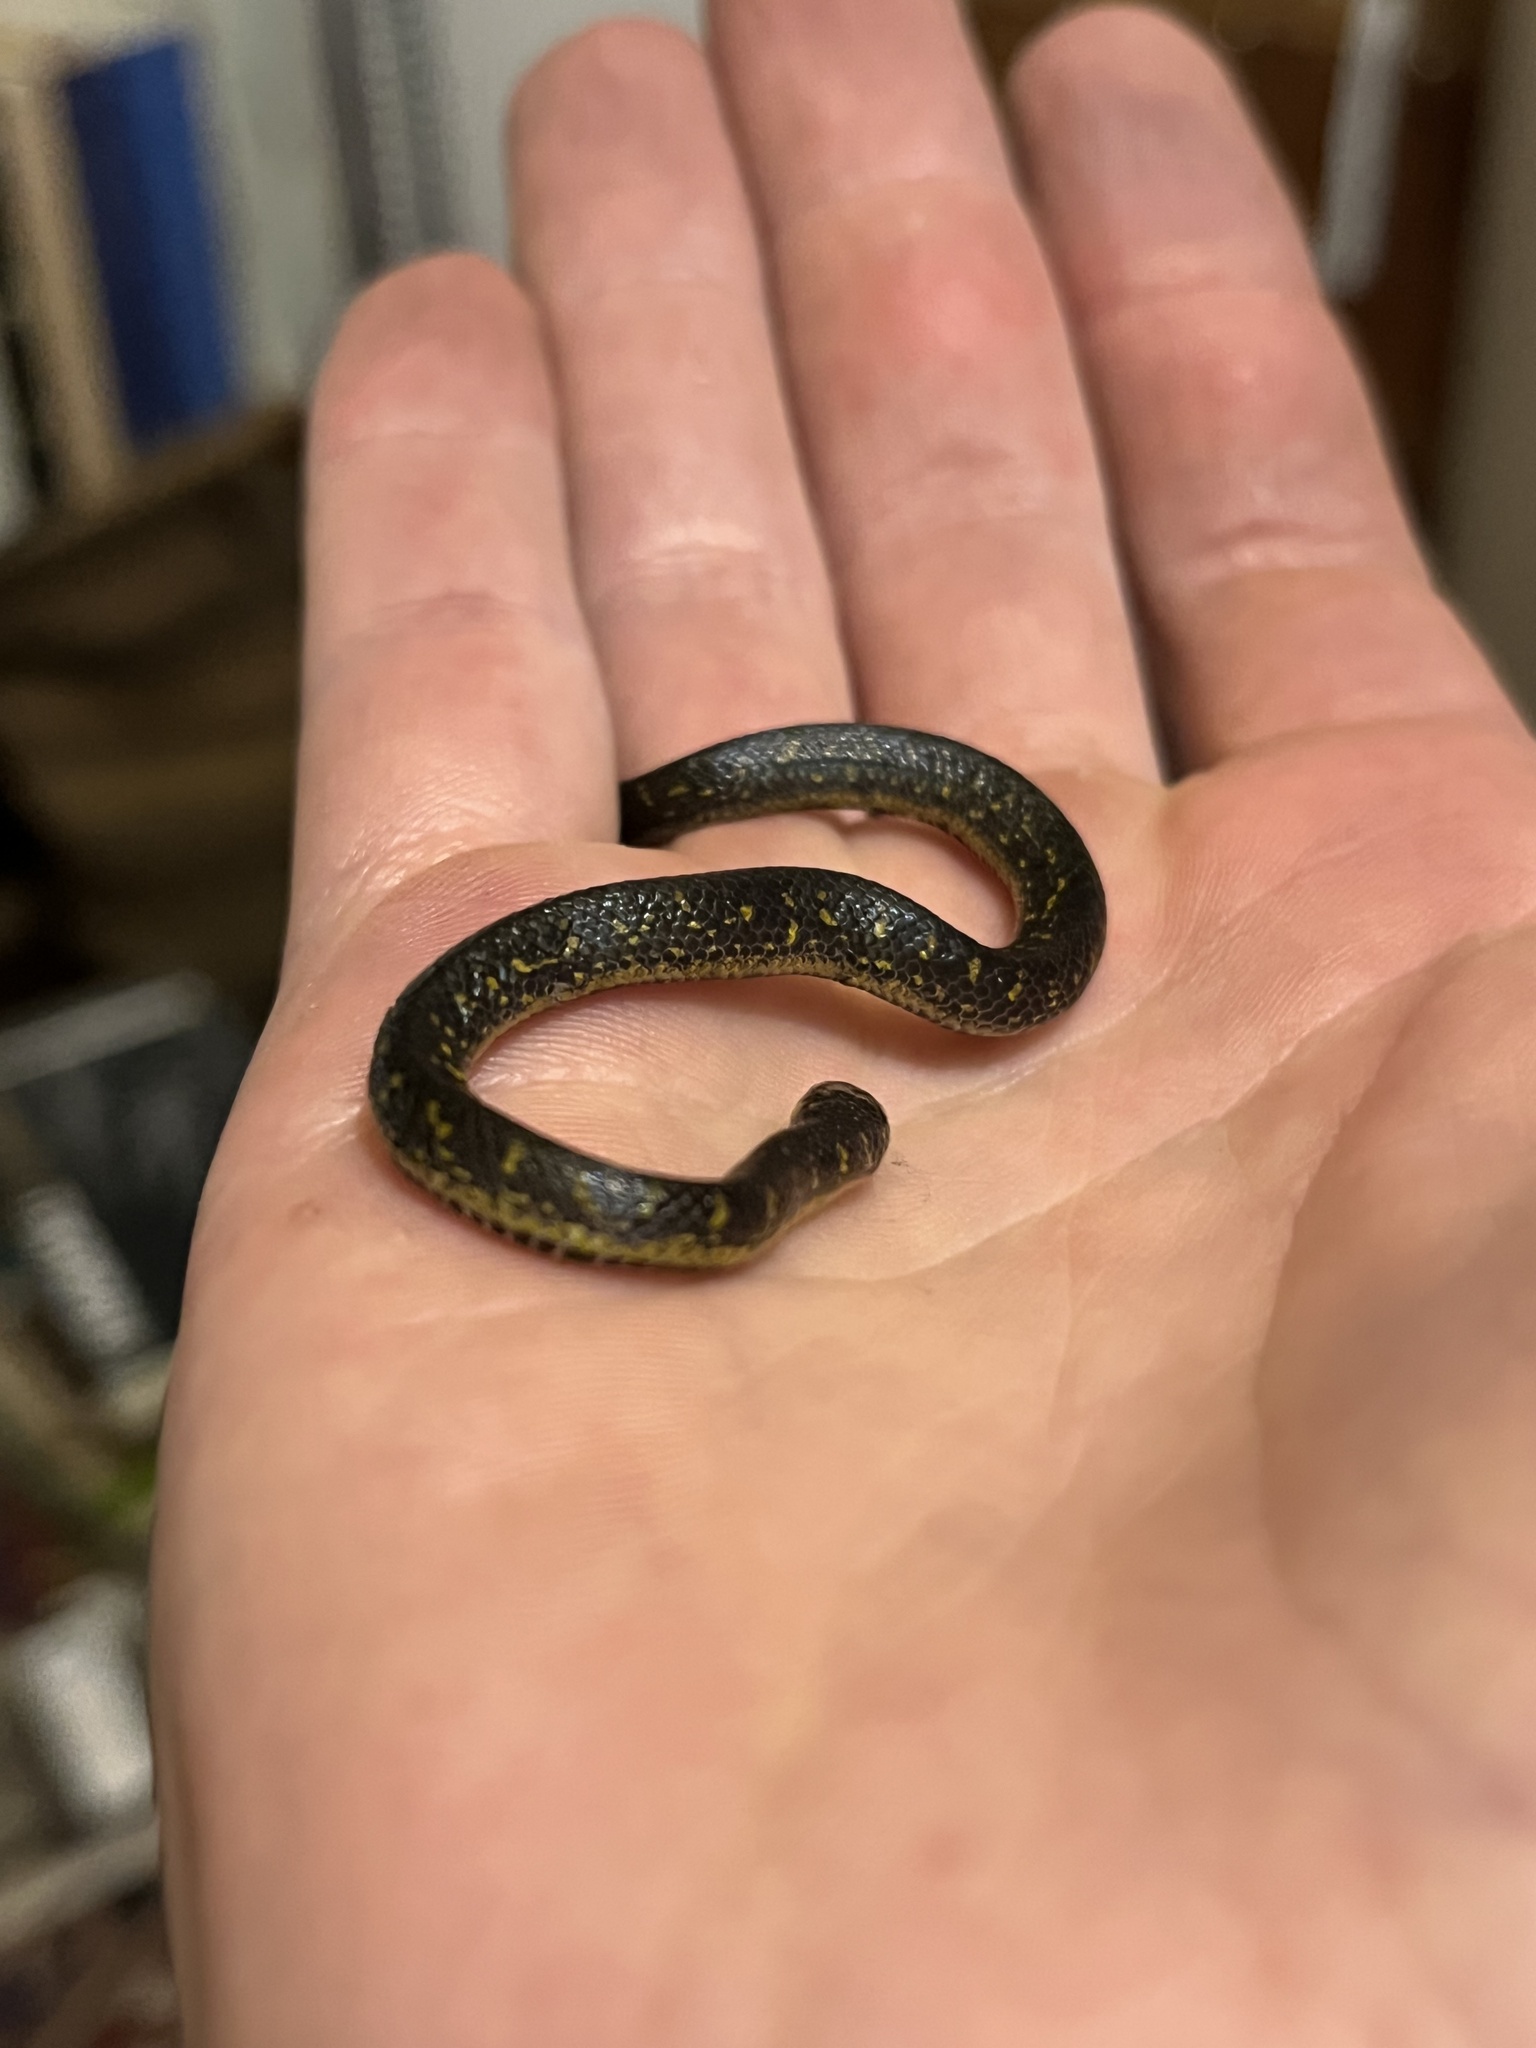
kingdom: Animalia
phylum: Chordata
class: Squamata
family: Colubridae
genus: Atractus
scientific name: Atractus crassicaudatus
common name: Thickhead ground snake
